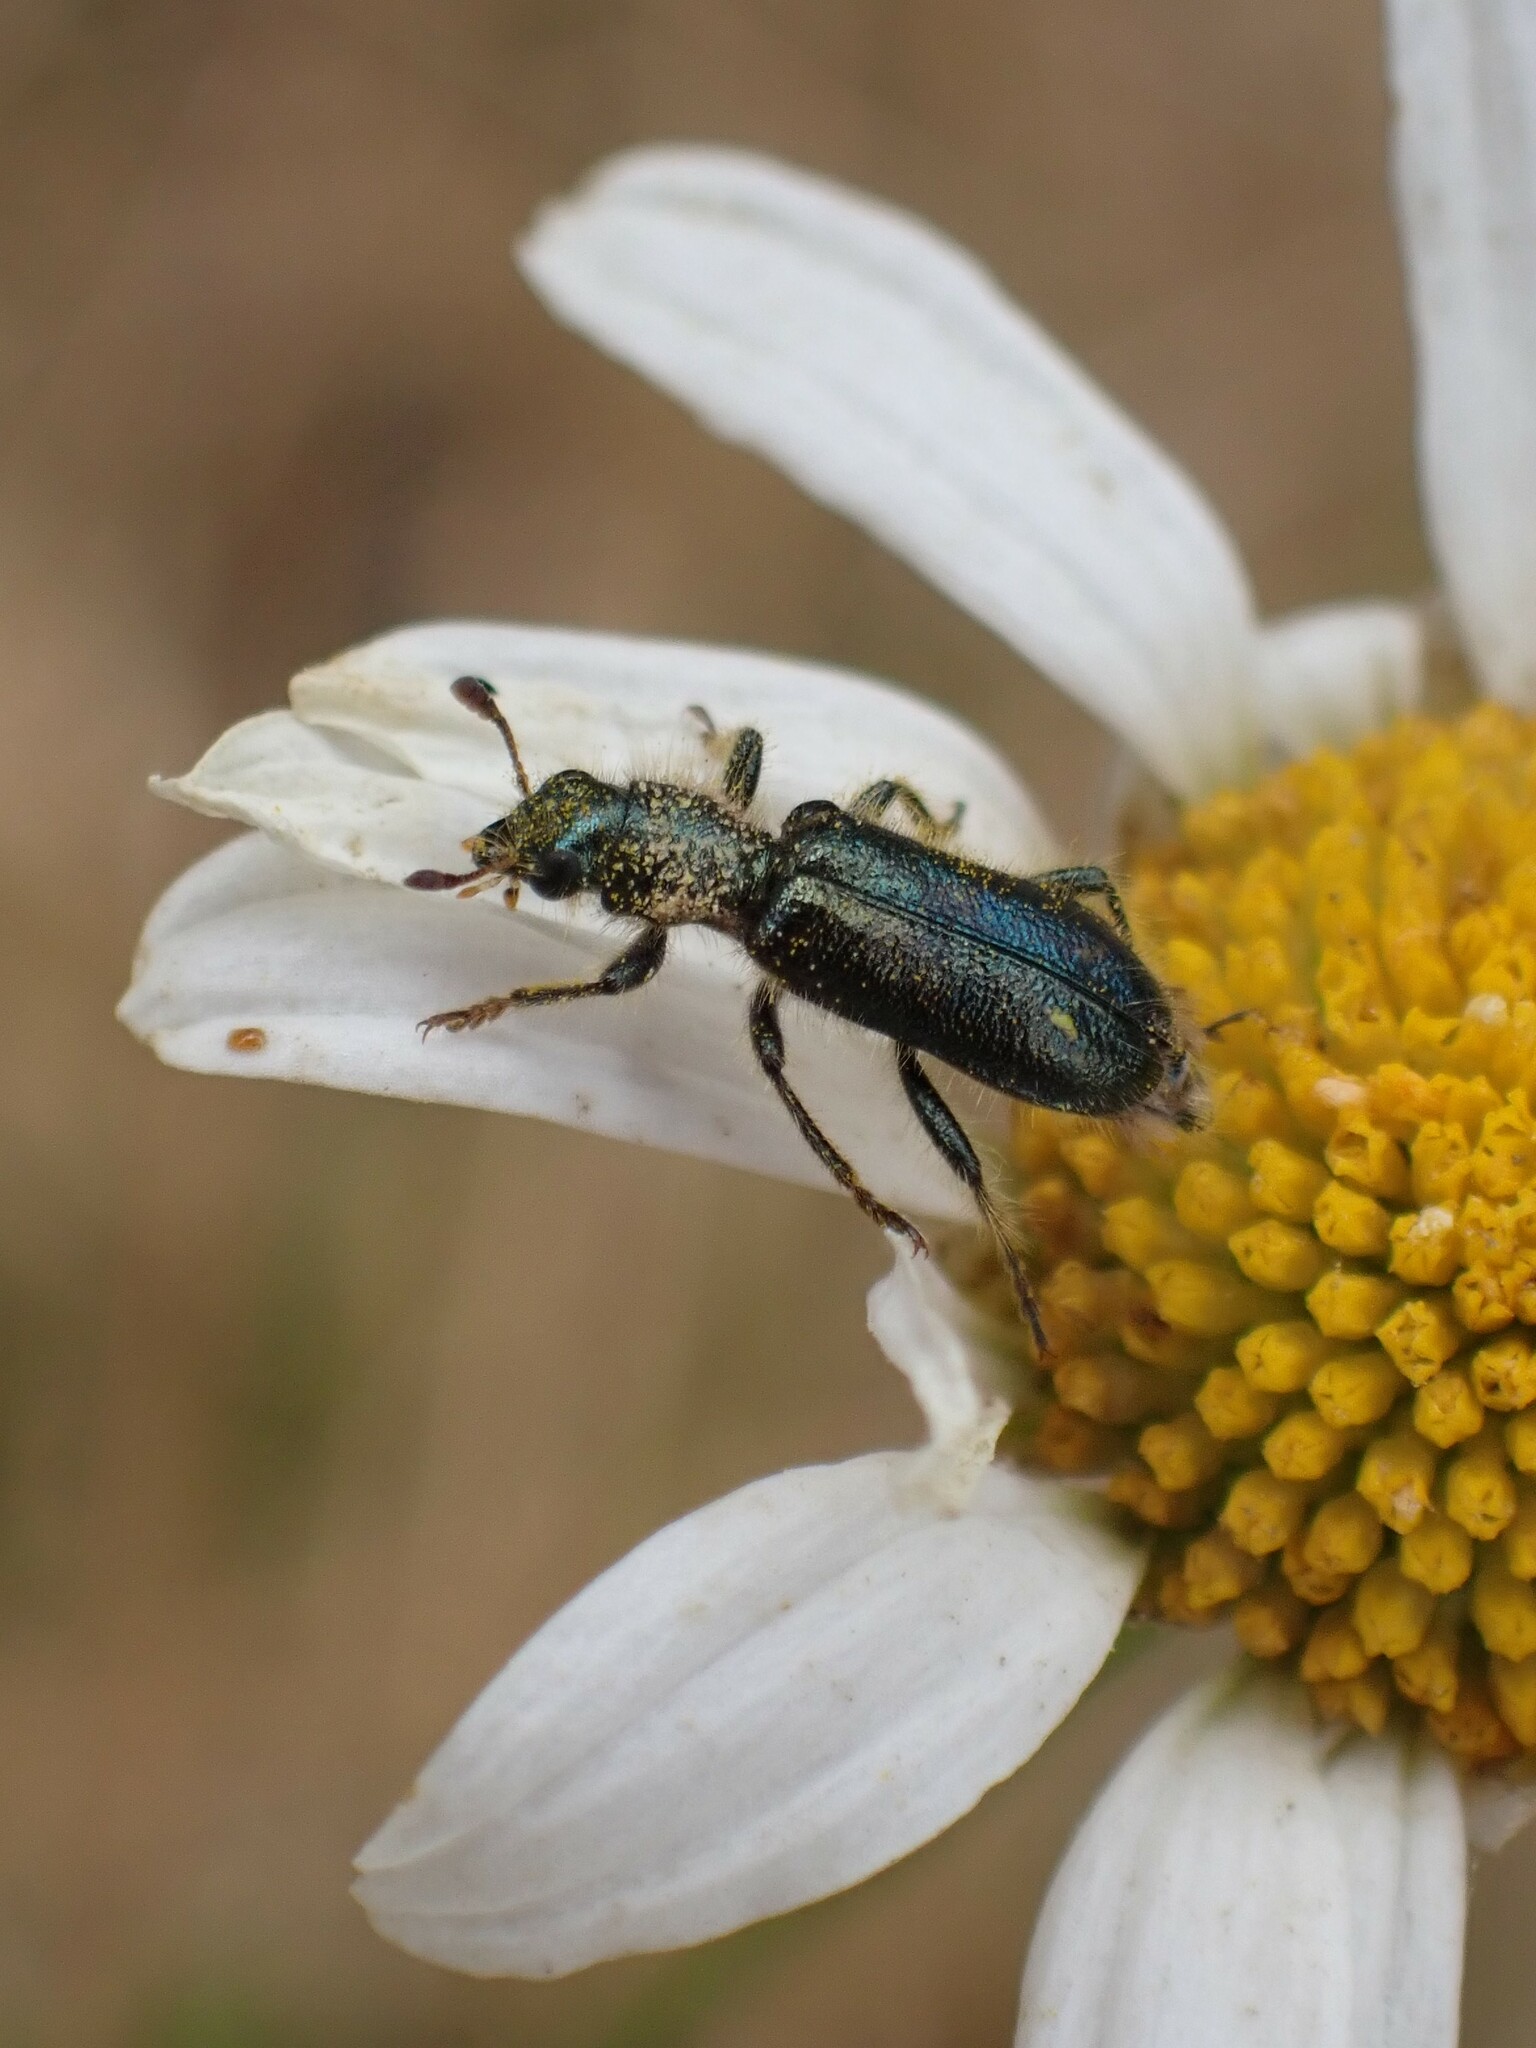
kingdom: Animalia
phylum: Arthropoda
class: Insecta
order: Coleoptera
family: Cleridae
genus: Trichodes
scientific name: Trichodes ornatus
